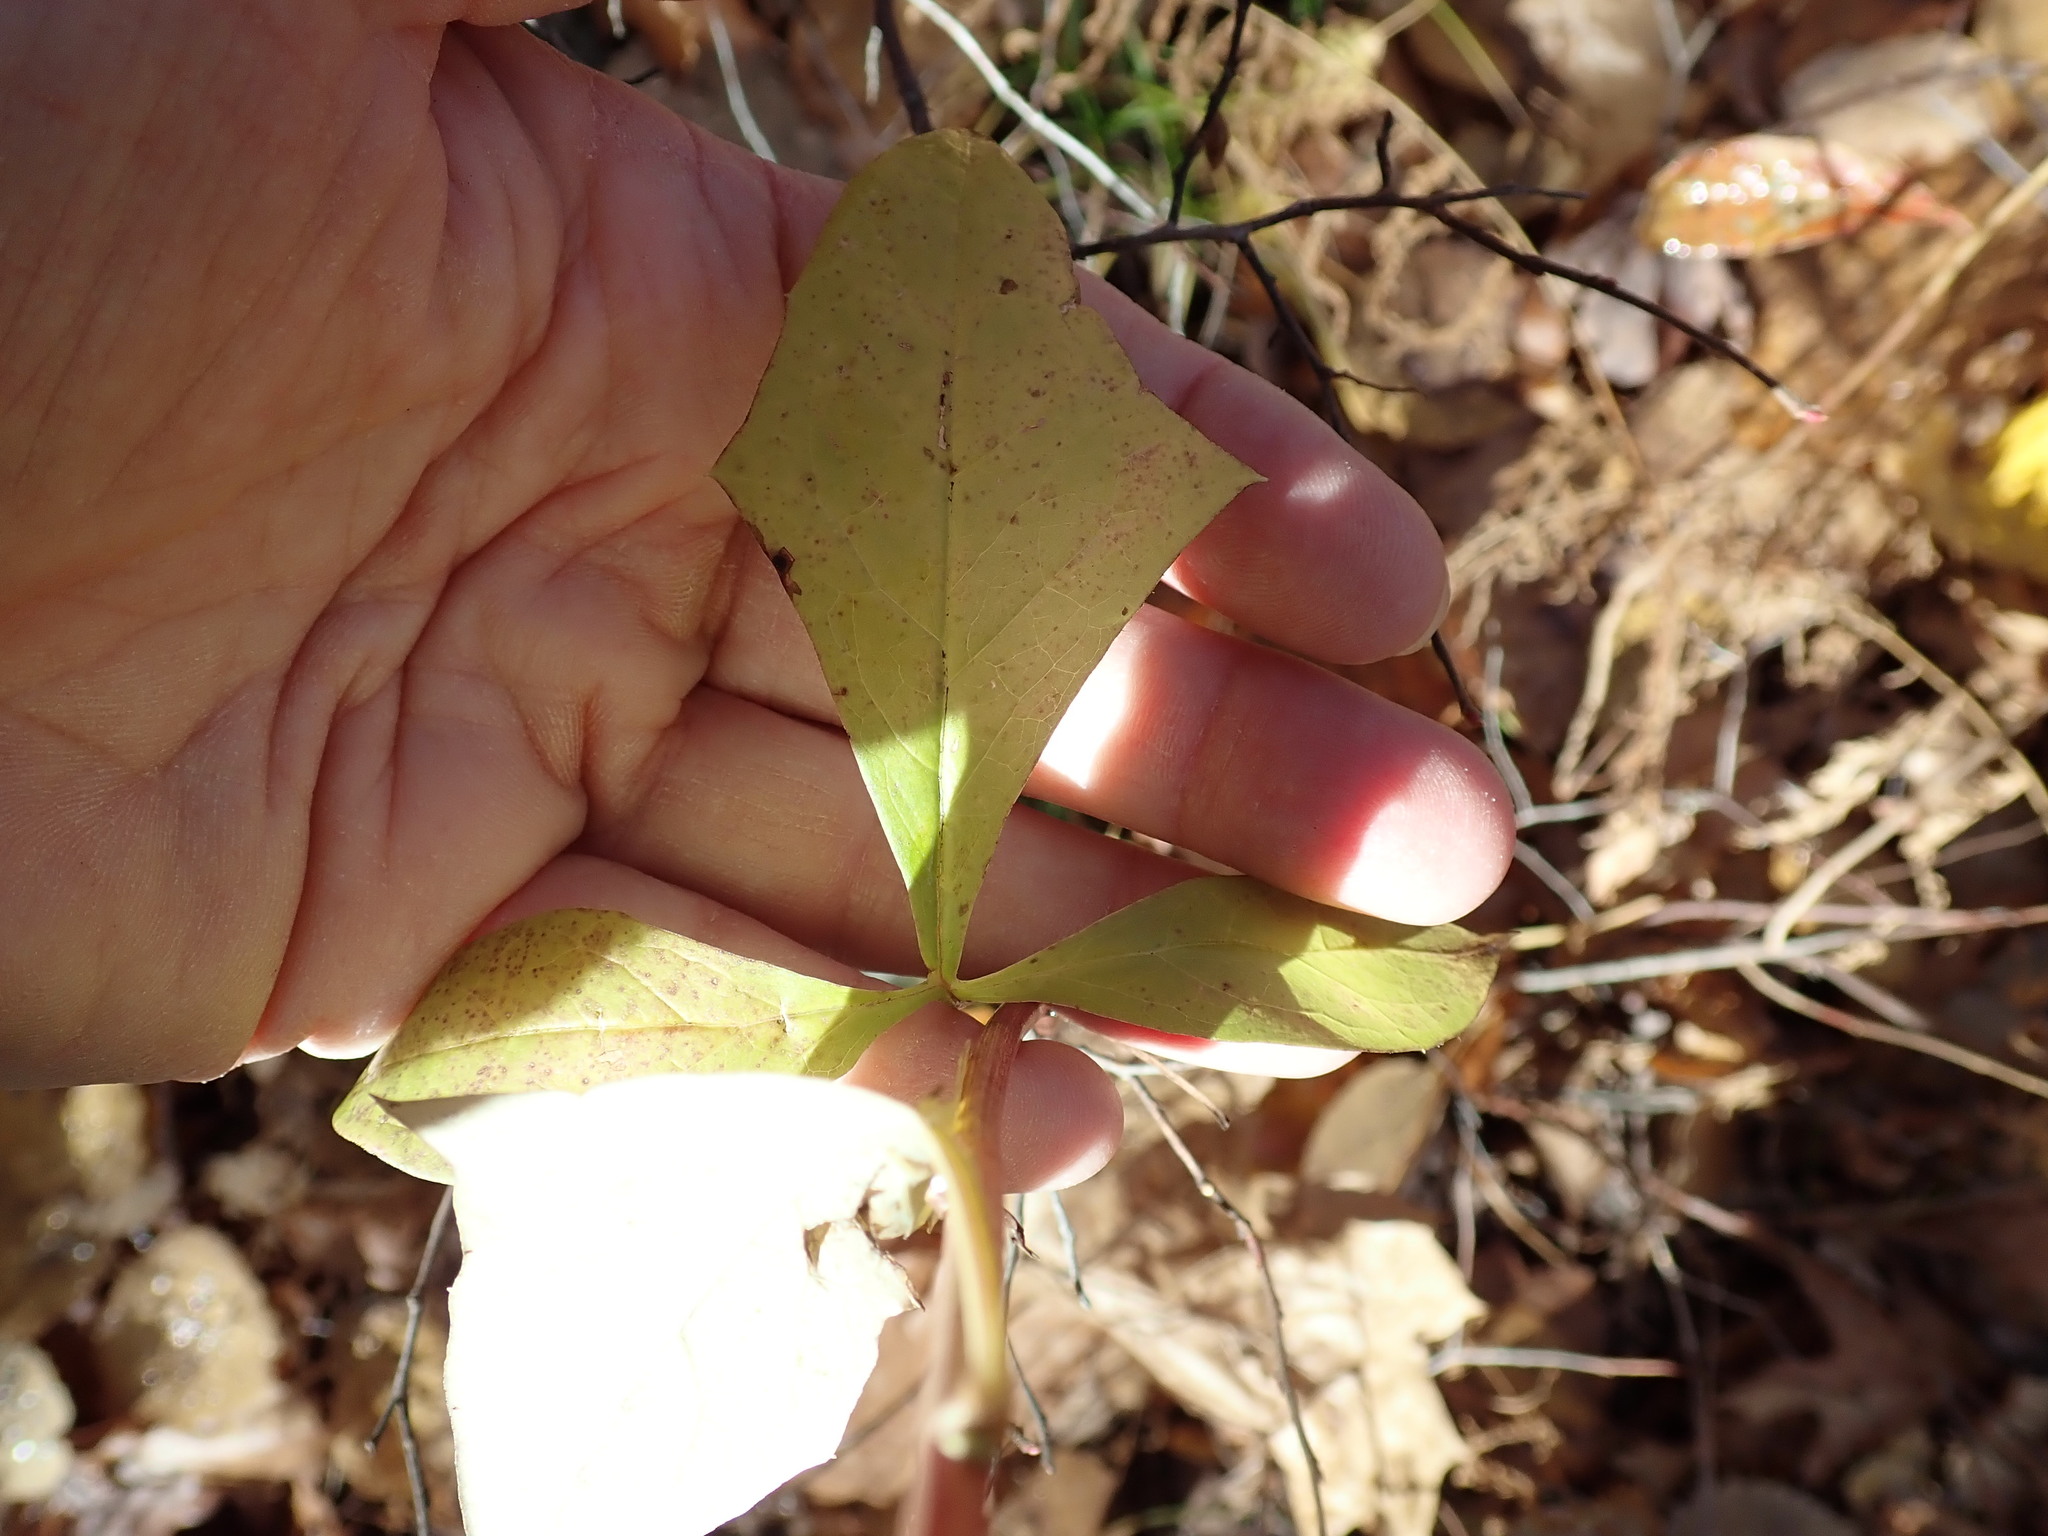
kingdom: Plantae
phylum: Tracheophyta
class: Magnoliopsida
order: Asterales
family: Asteraceae
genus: Nabalus
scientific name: Nabalus trifoliolatus
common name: Gall-of-the-earth
